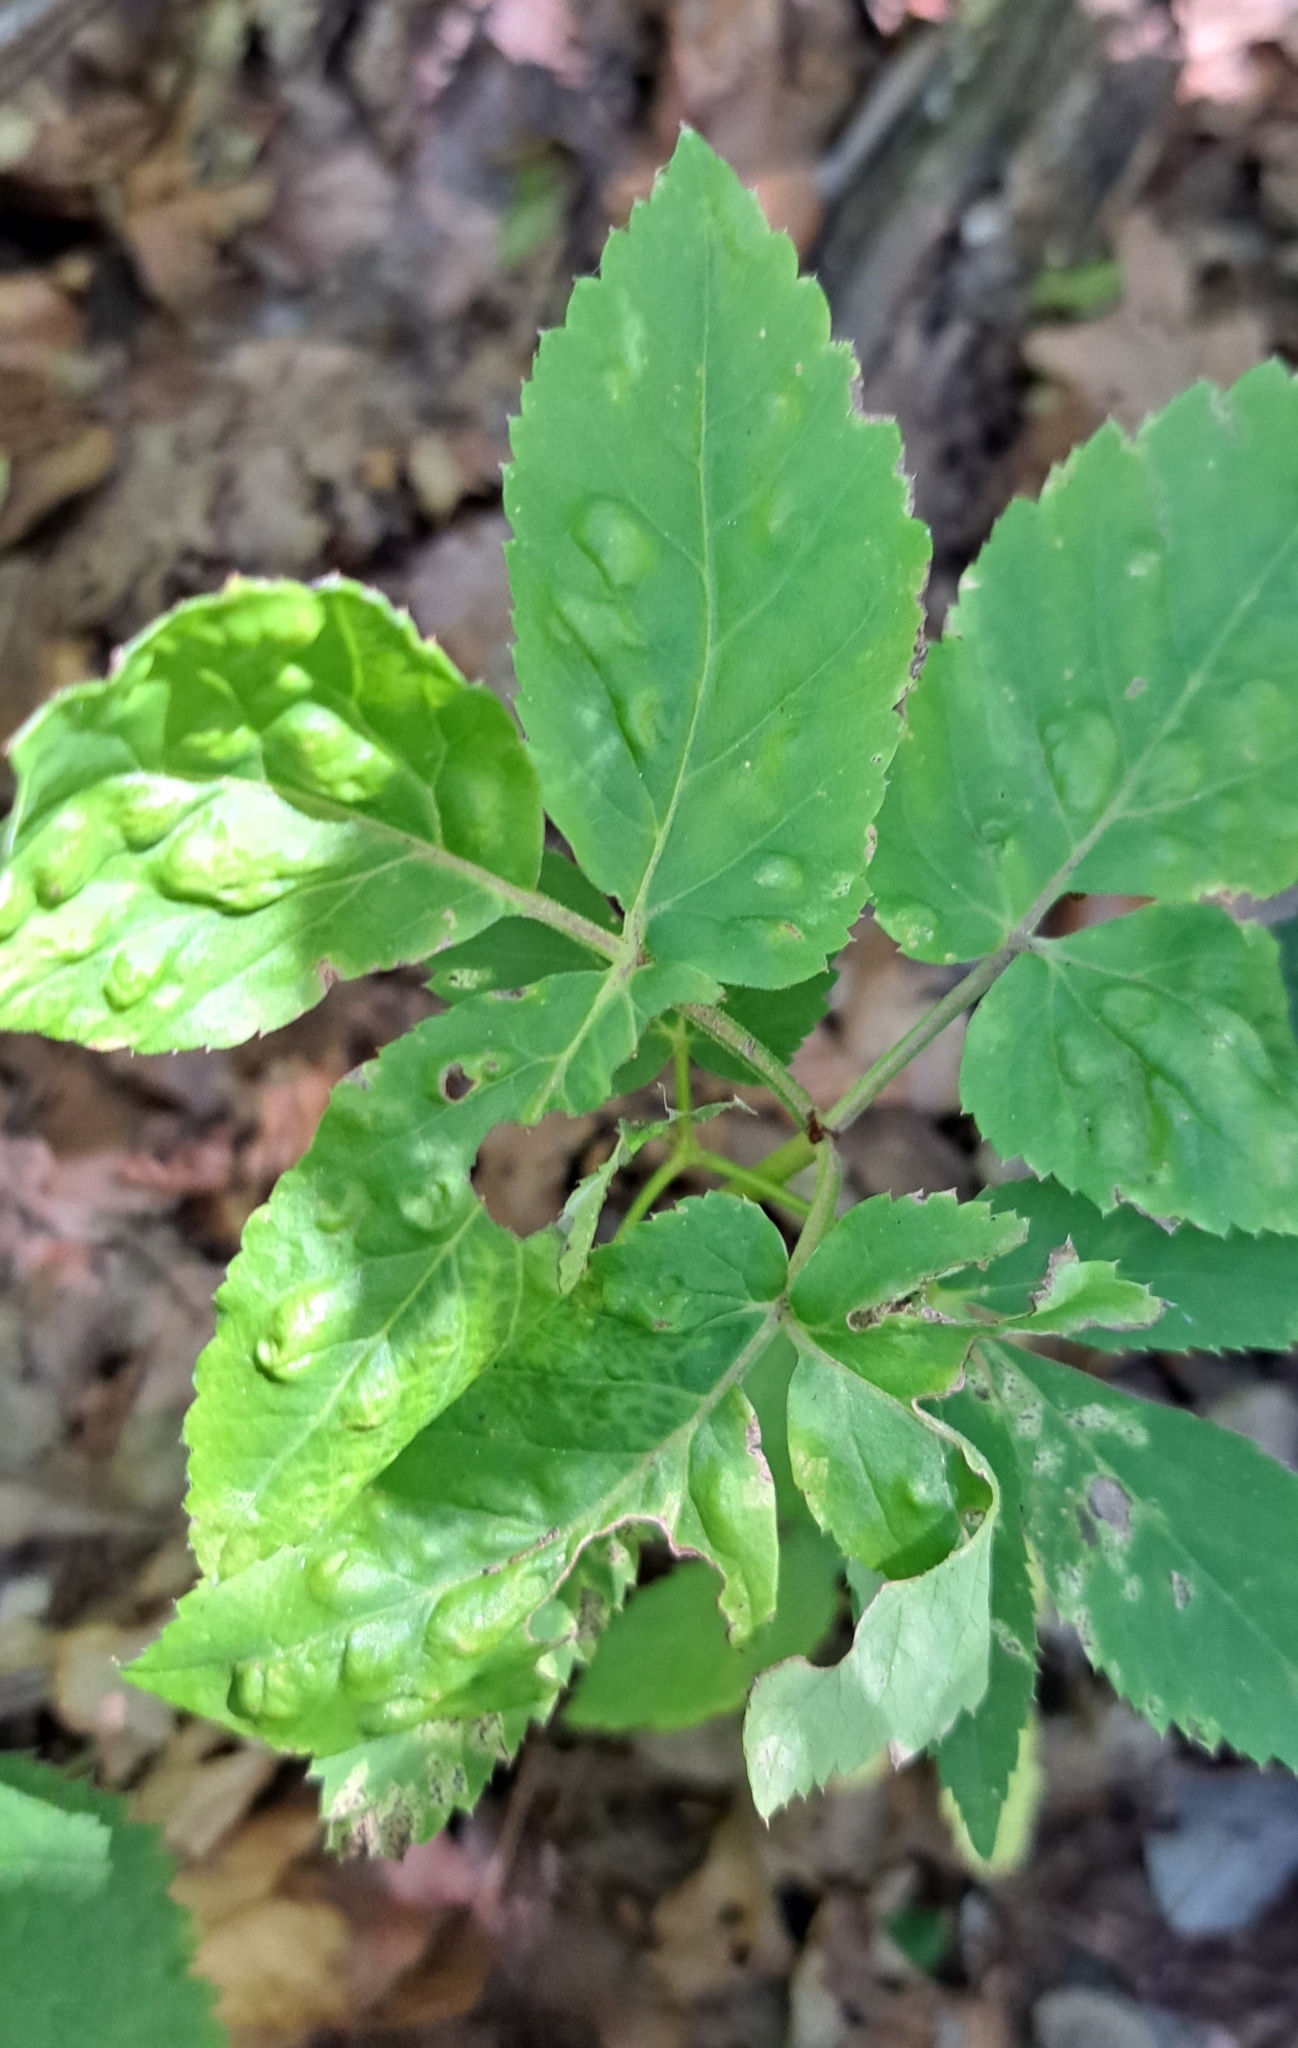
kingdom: Animalia
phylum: Arthropoda
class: Insecta
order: Hemiptera
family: Triozidae
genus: Trioza
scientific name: Trioza flavipennis
